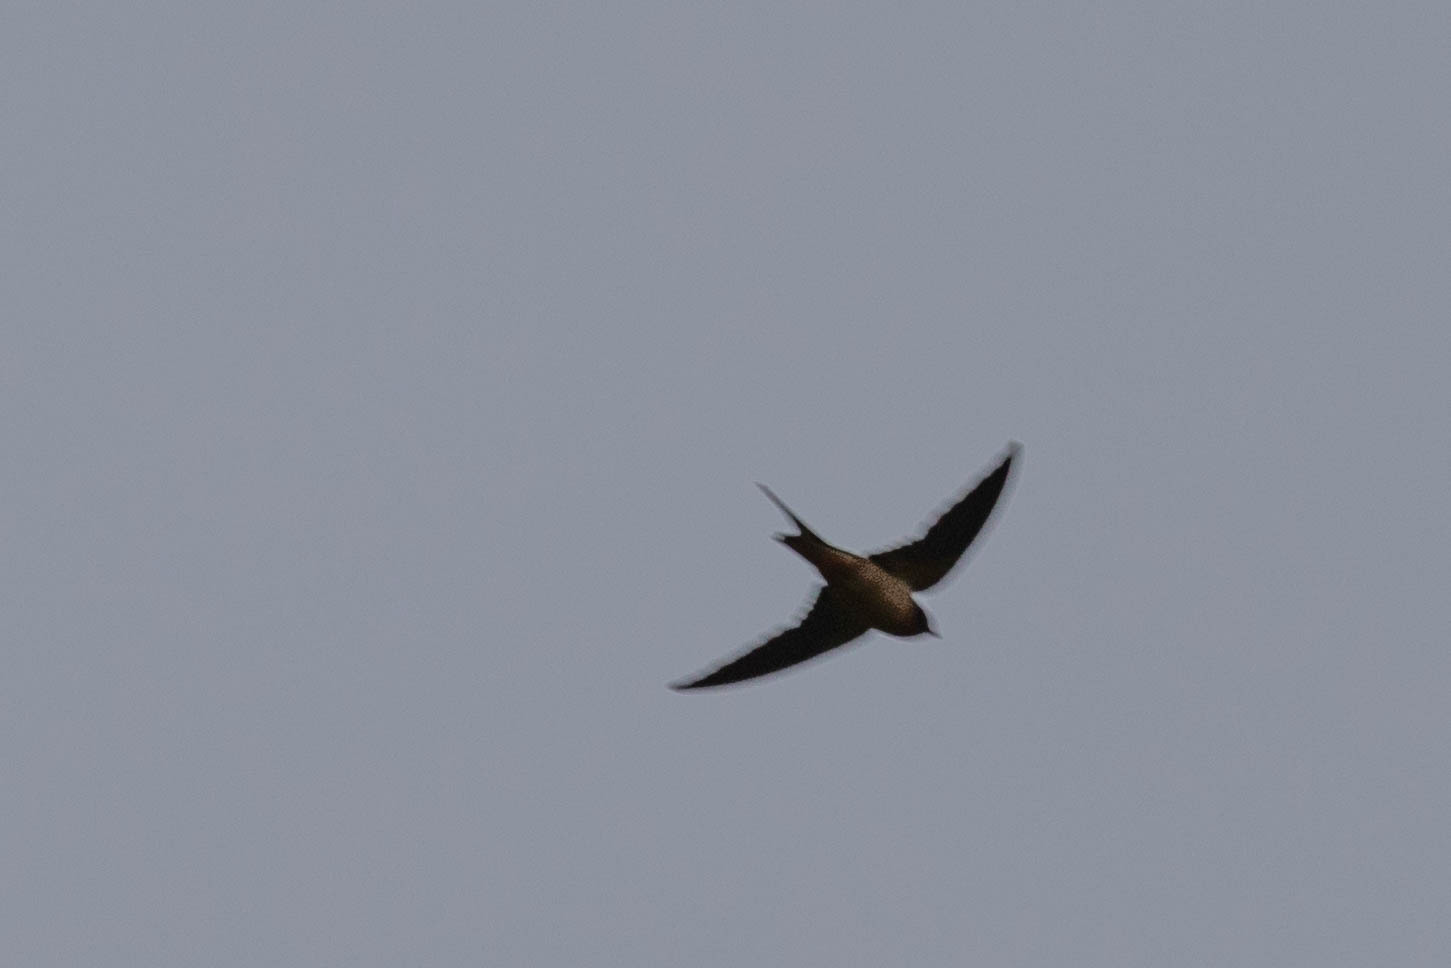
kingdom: Animalia
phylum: Chordata
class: Aves
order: Passeriformes
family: Hirundinidae
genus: Hirundo
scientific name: Hirundo rustica
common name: Barn swallow
